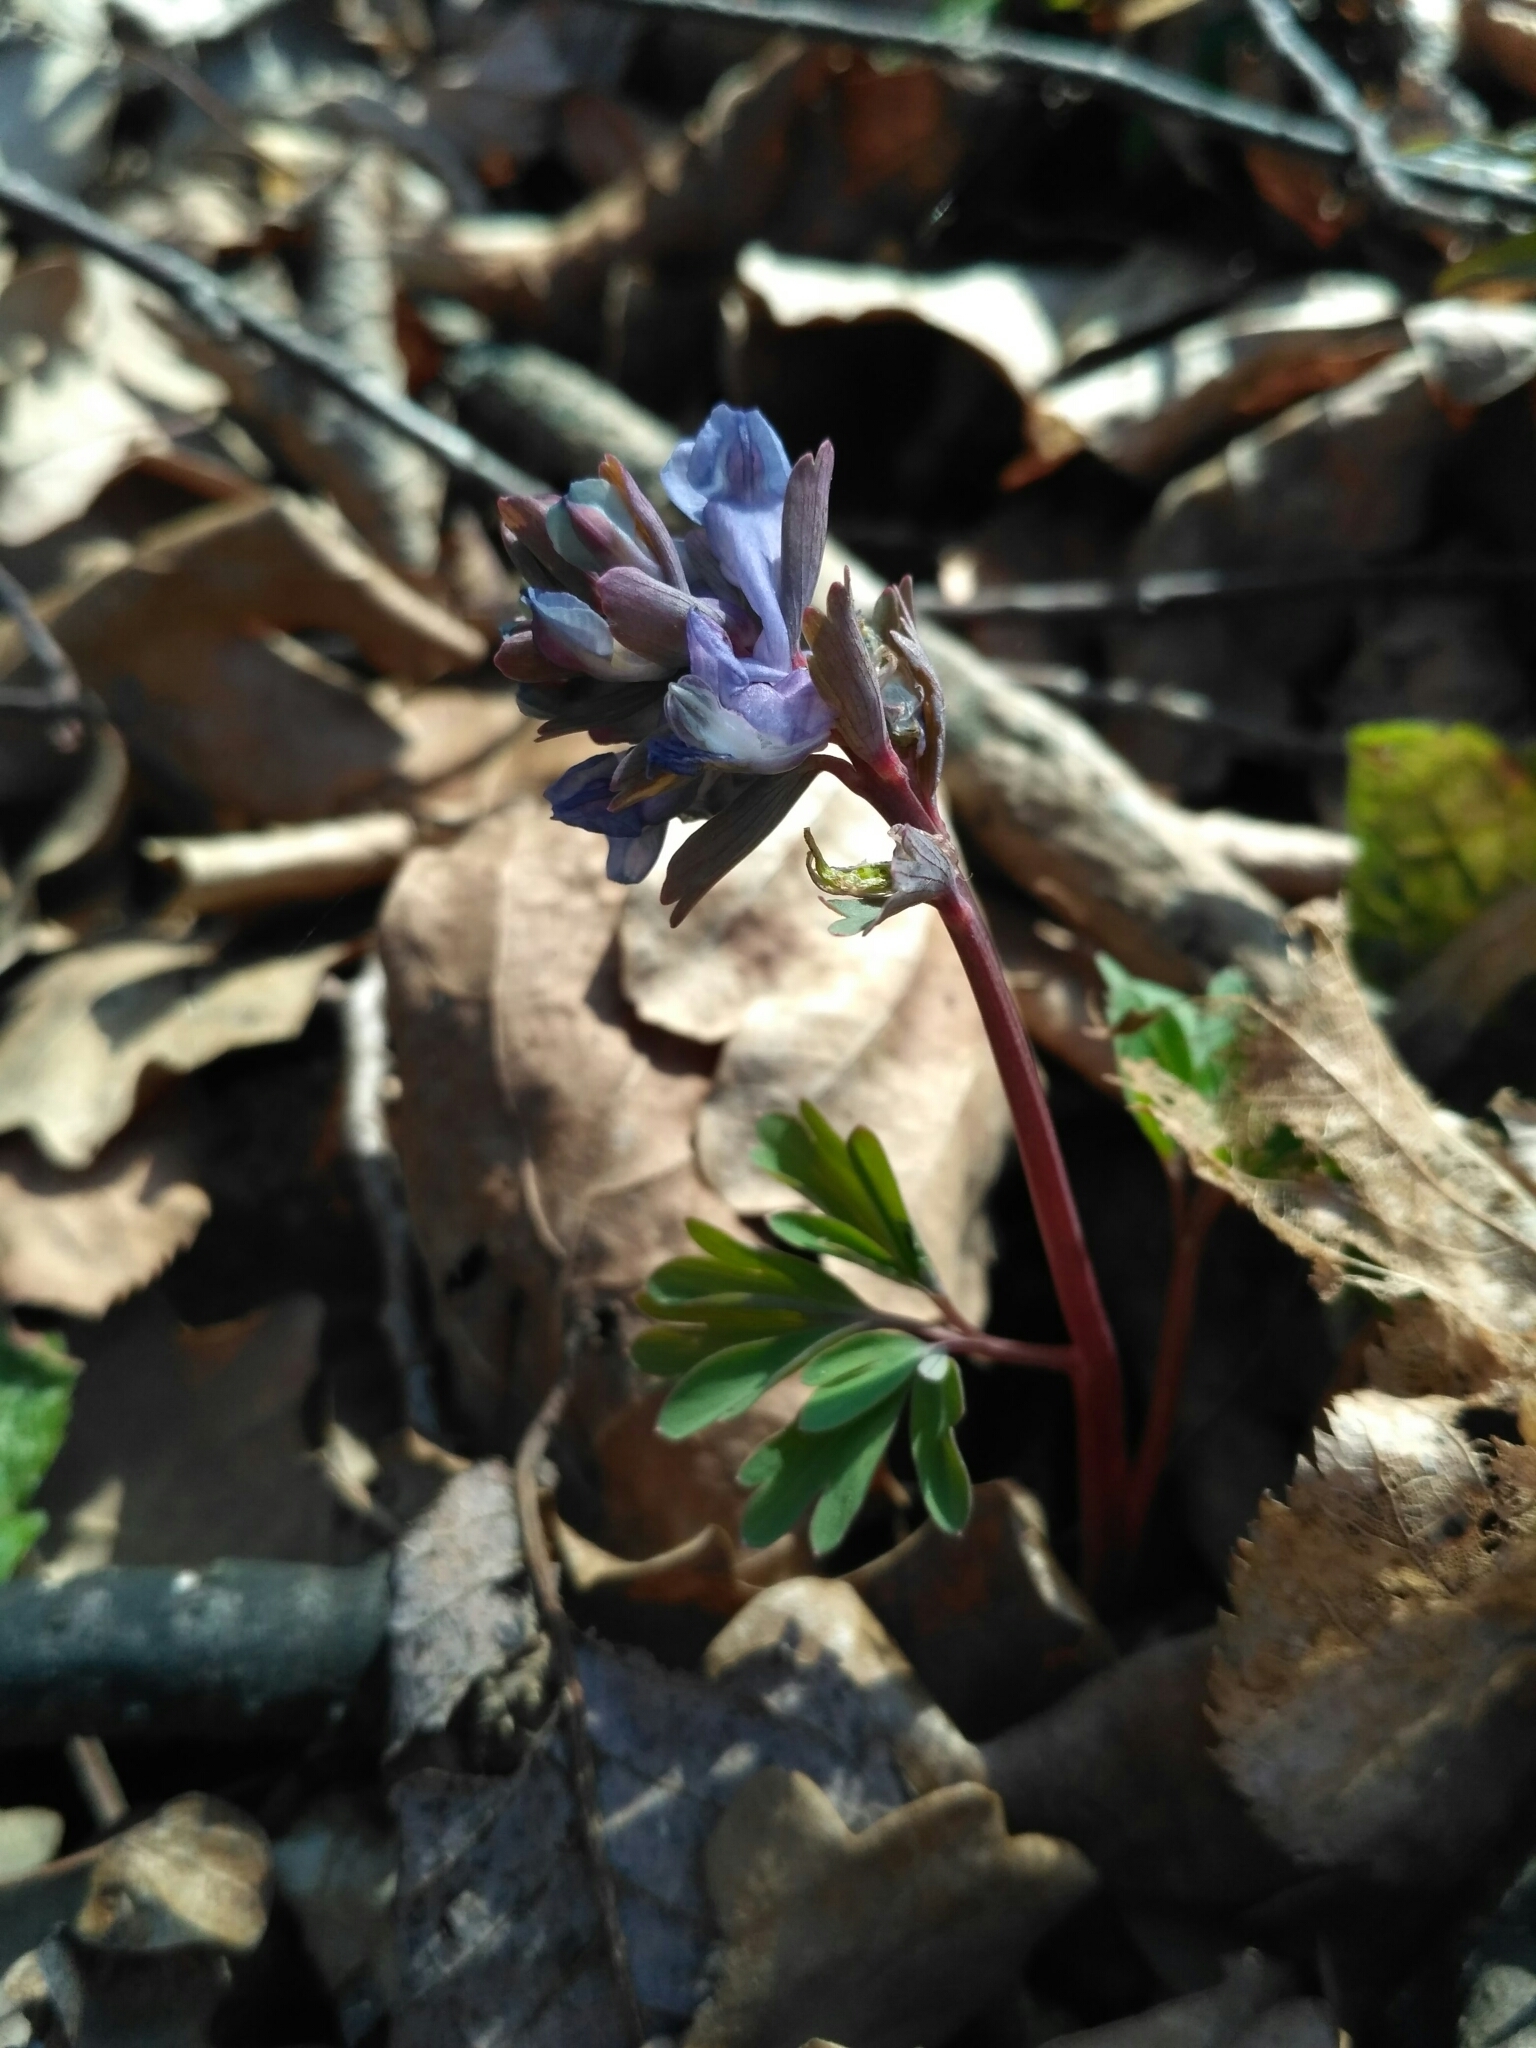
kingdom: Plantae
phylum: Tracheophyta
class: Magnoliopsida
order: Ranunculales
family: Papaveraceae
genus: Corydalis
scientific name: Corydalis solida
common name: Bird-in-a-bush
